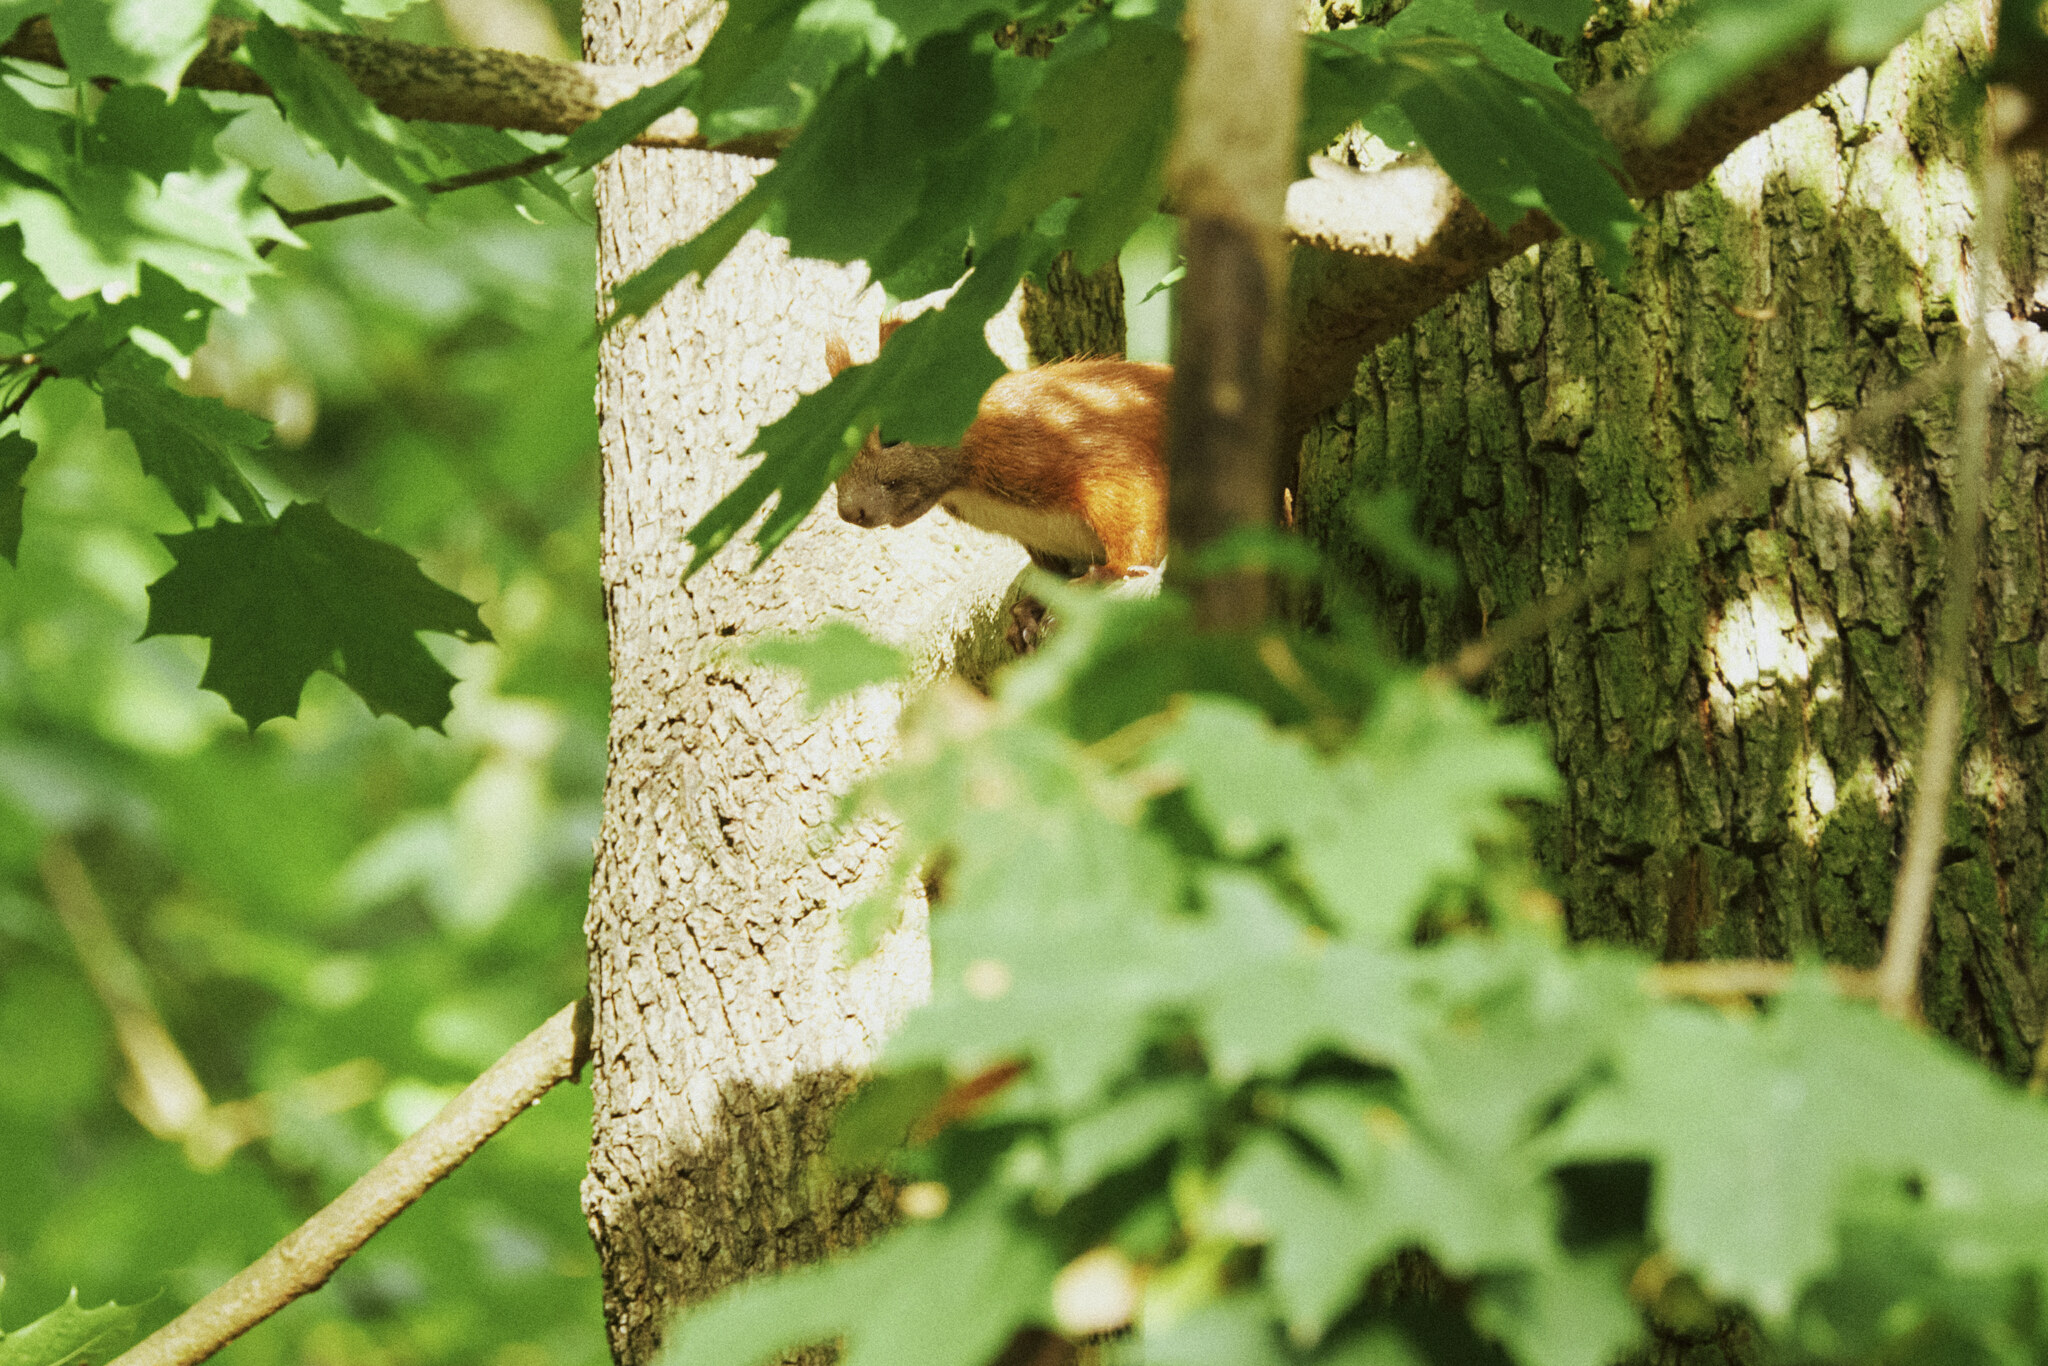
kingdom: Animalia
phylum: Chordata
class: Mammalia
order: Rodentia
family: Sciuridae
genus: Sciurus
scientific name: Sciurus vulgaris
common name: Eurasian red squirrel
